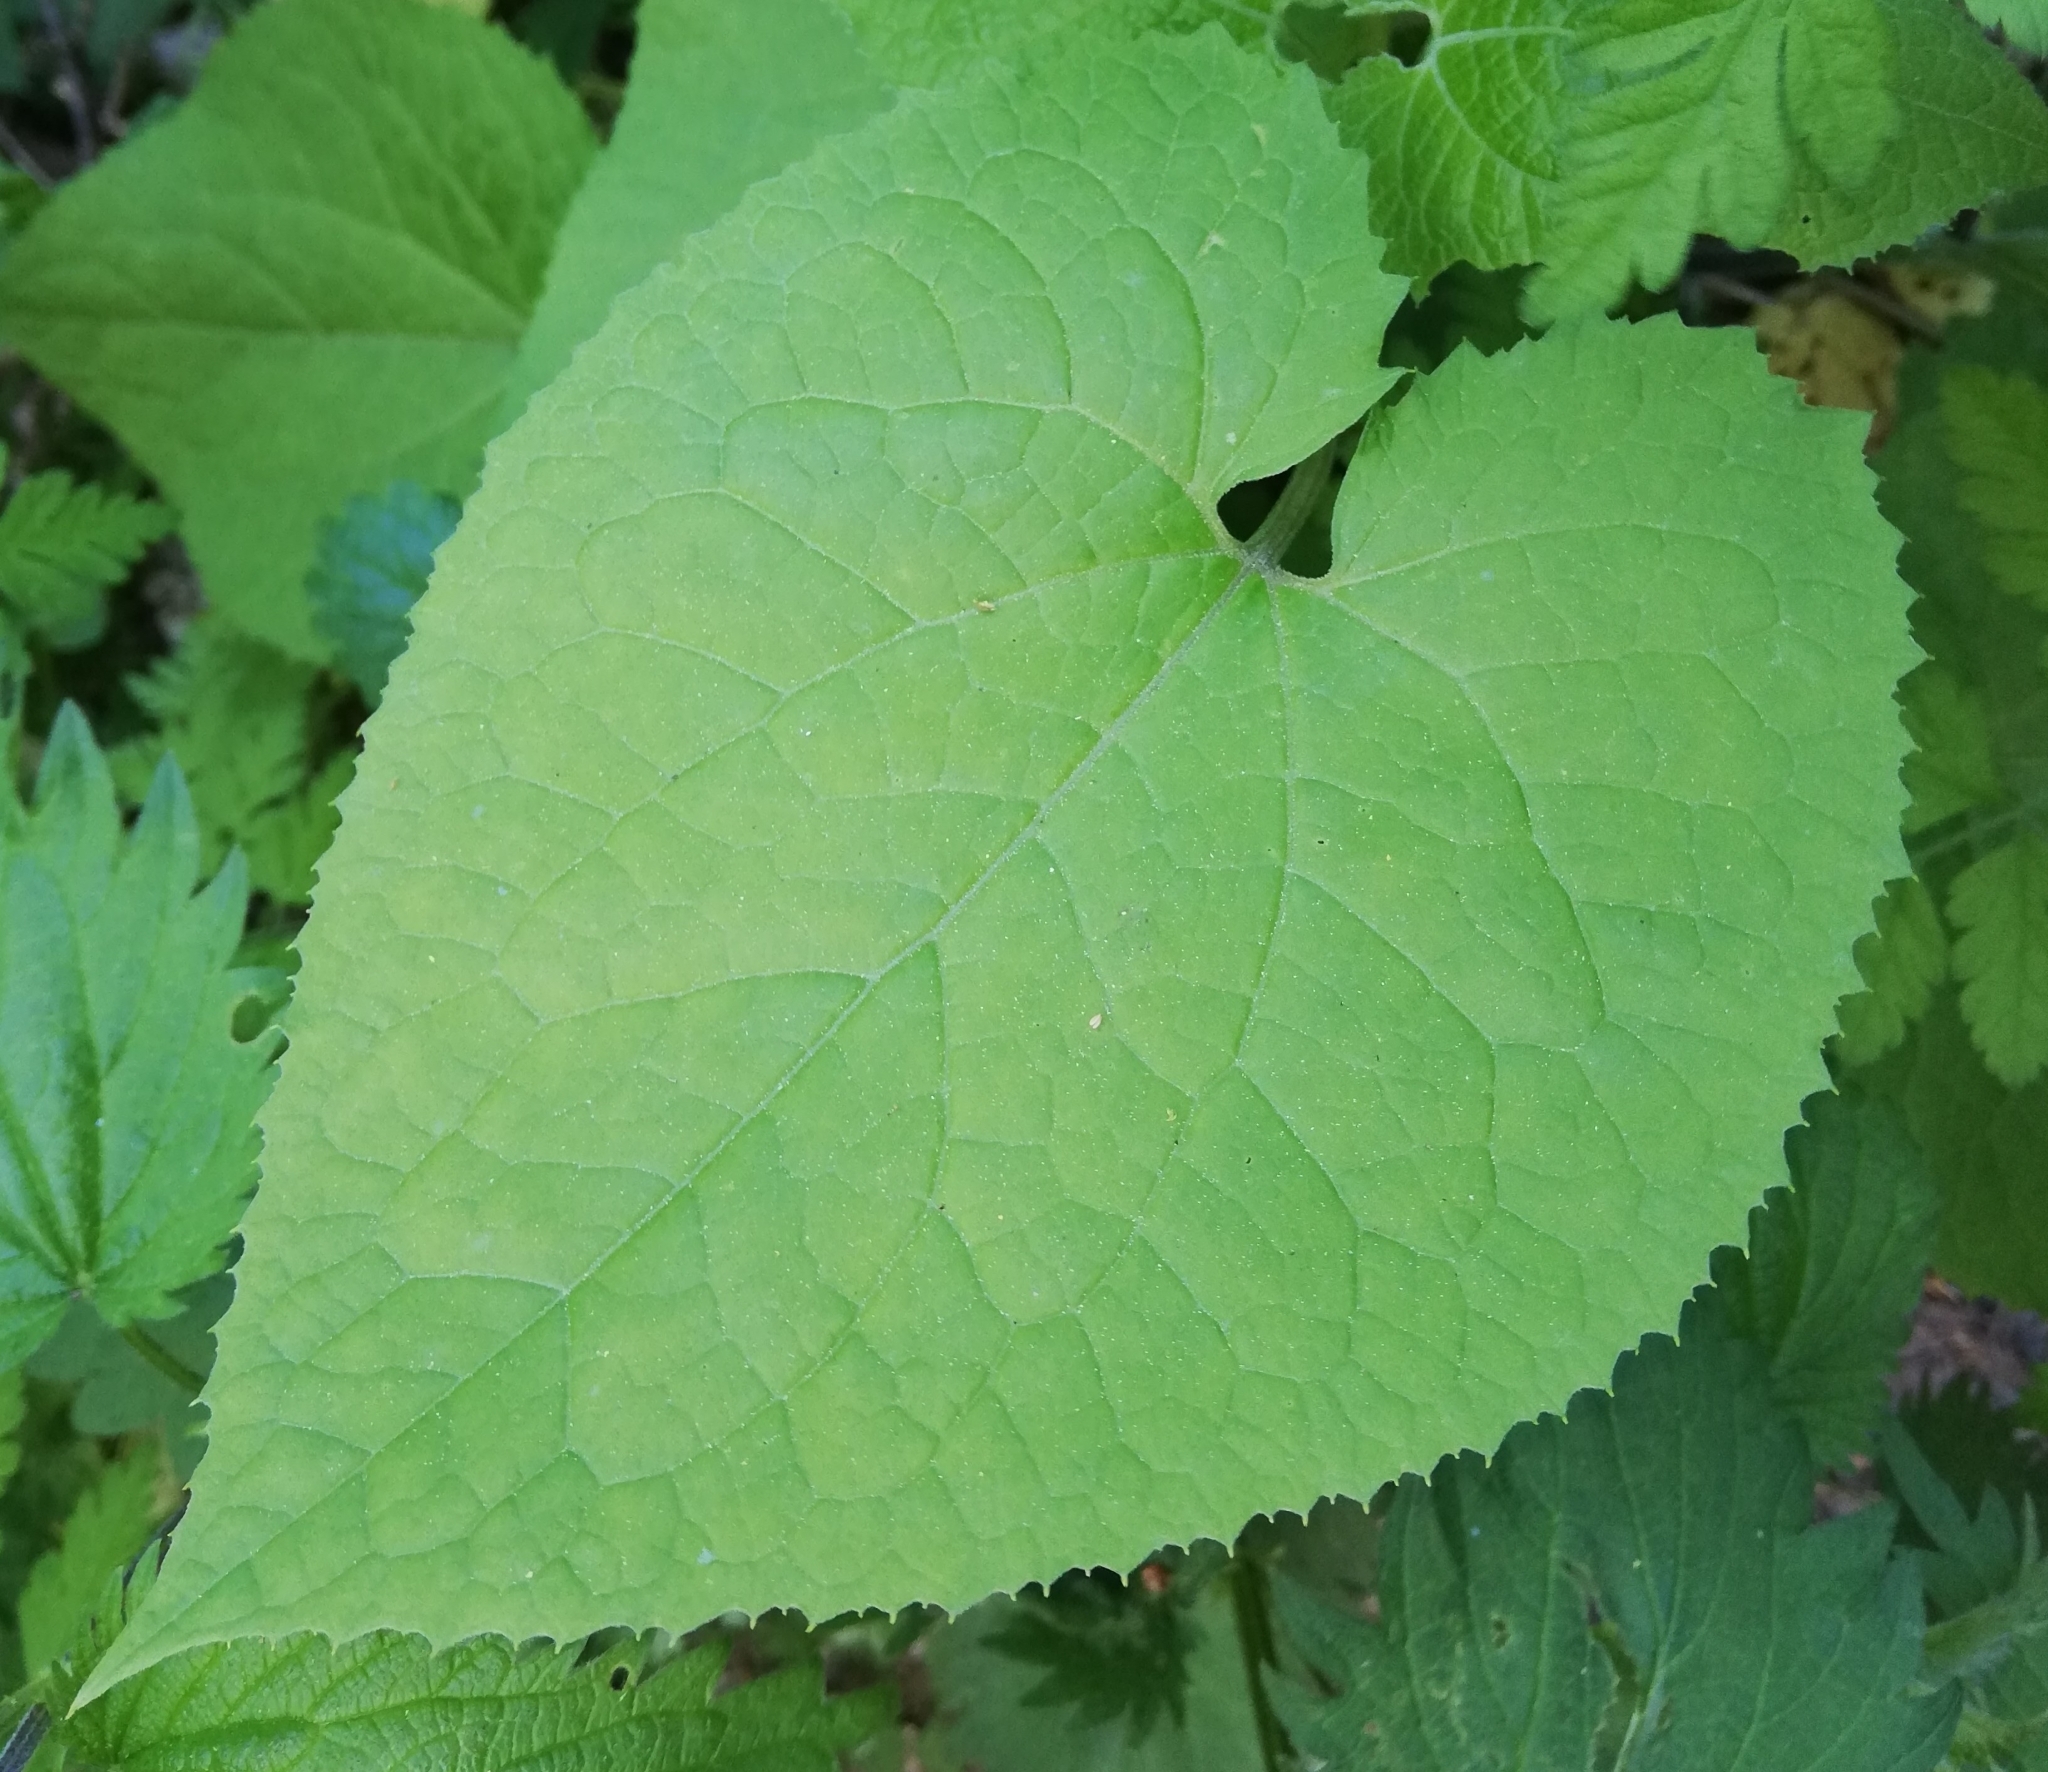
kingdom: Plantae
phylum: Tracheophyta
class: Magnoliopsida
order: Brassicales
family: Brassicaceae
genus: Lunaria
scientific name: Lunaria rediviva
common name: Perennial honesty
